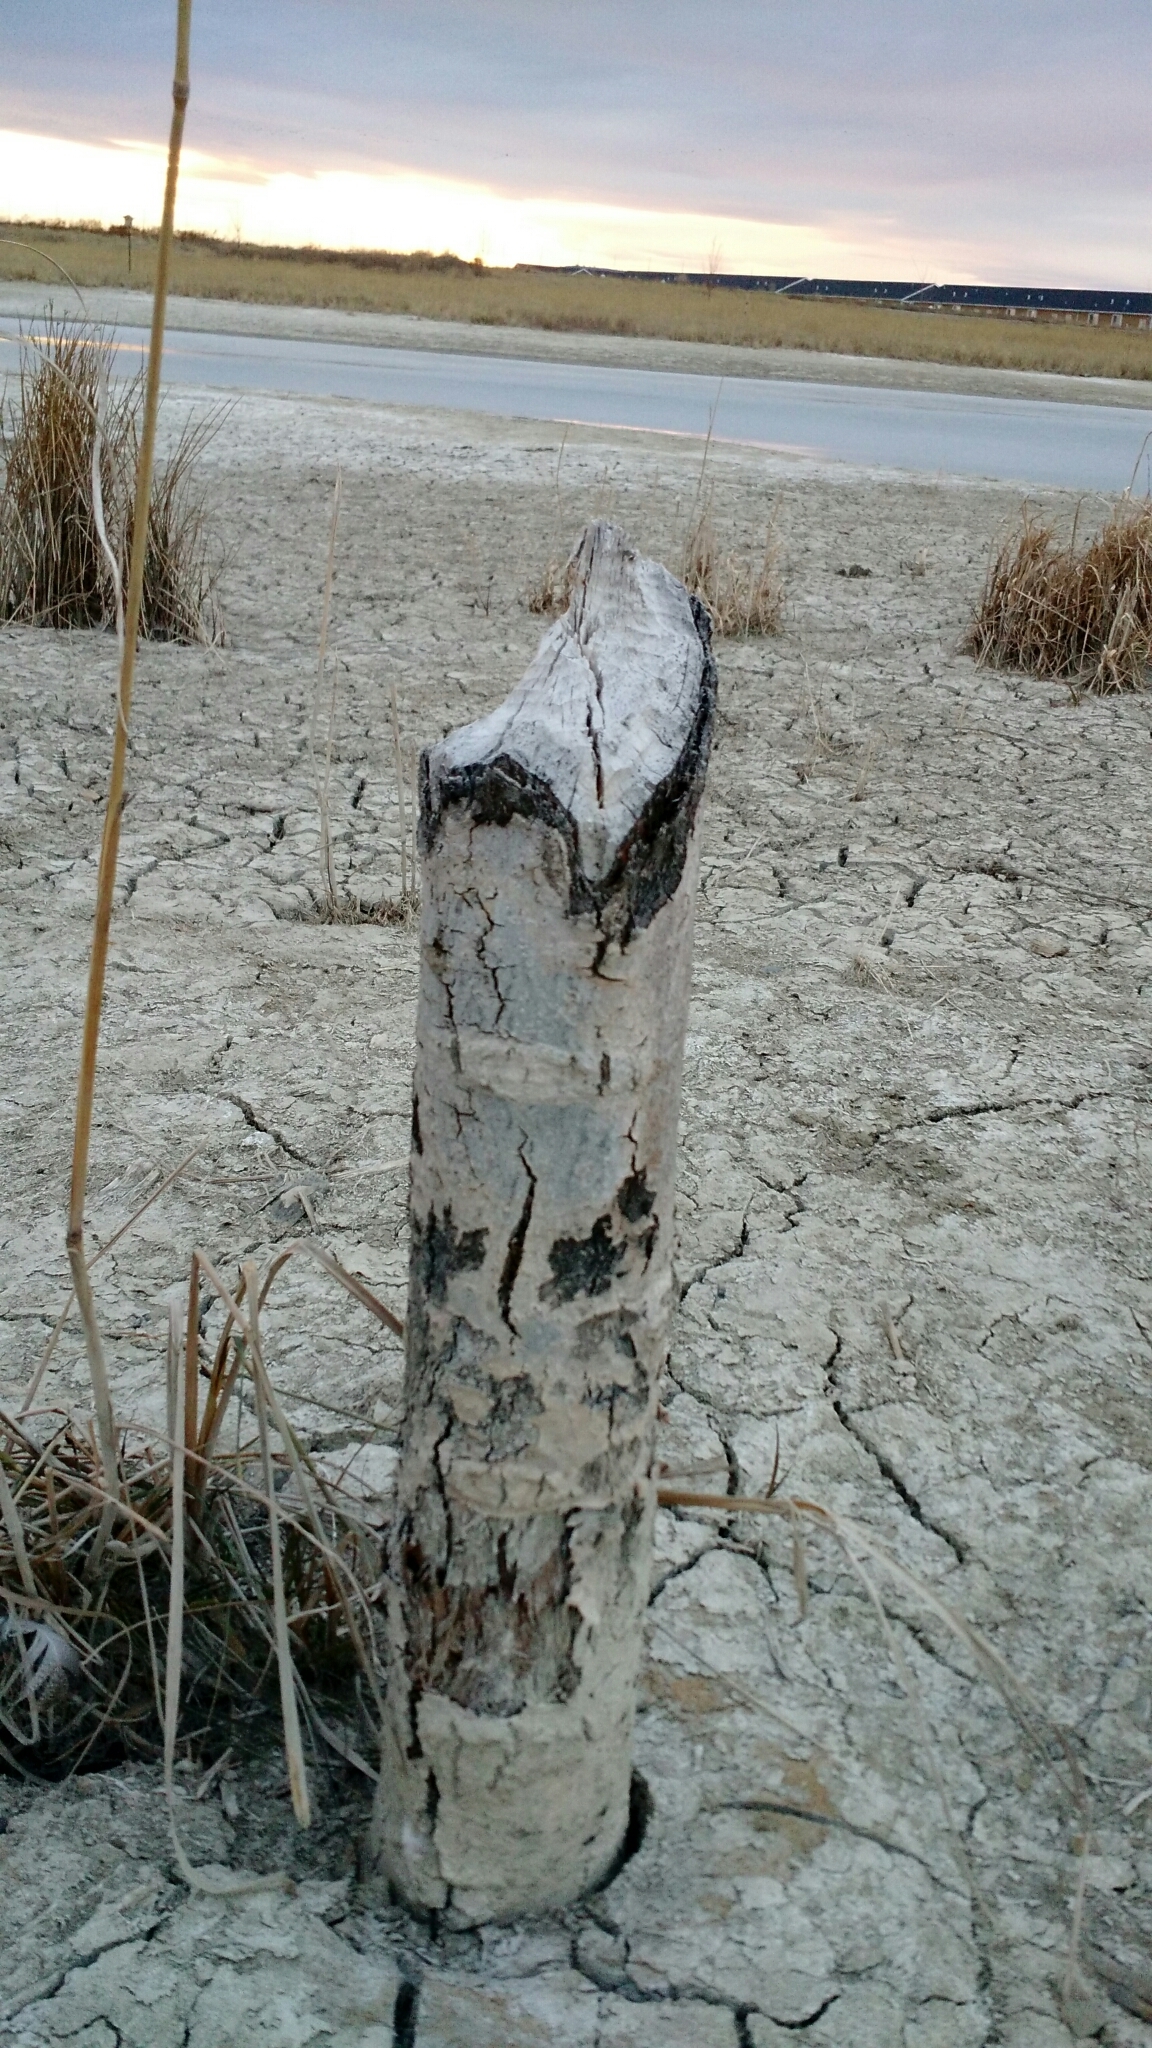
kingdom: Animalia
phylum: Chordata
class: Mammalia
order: Rodentia
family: Castoridae
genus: Castor
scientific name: Castor canadensis
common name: American beaver
